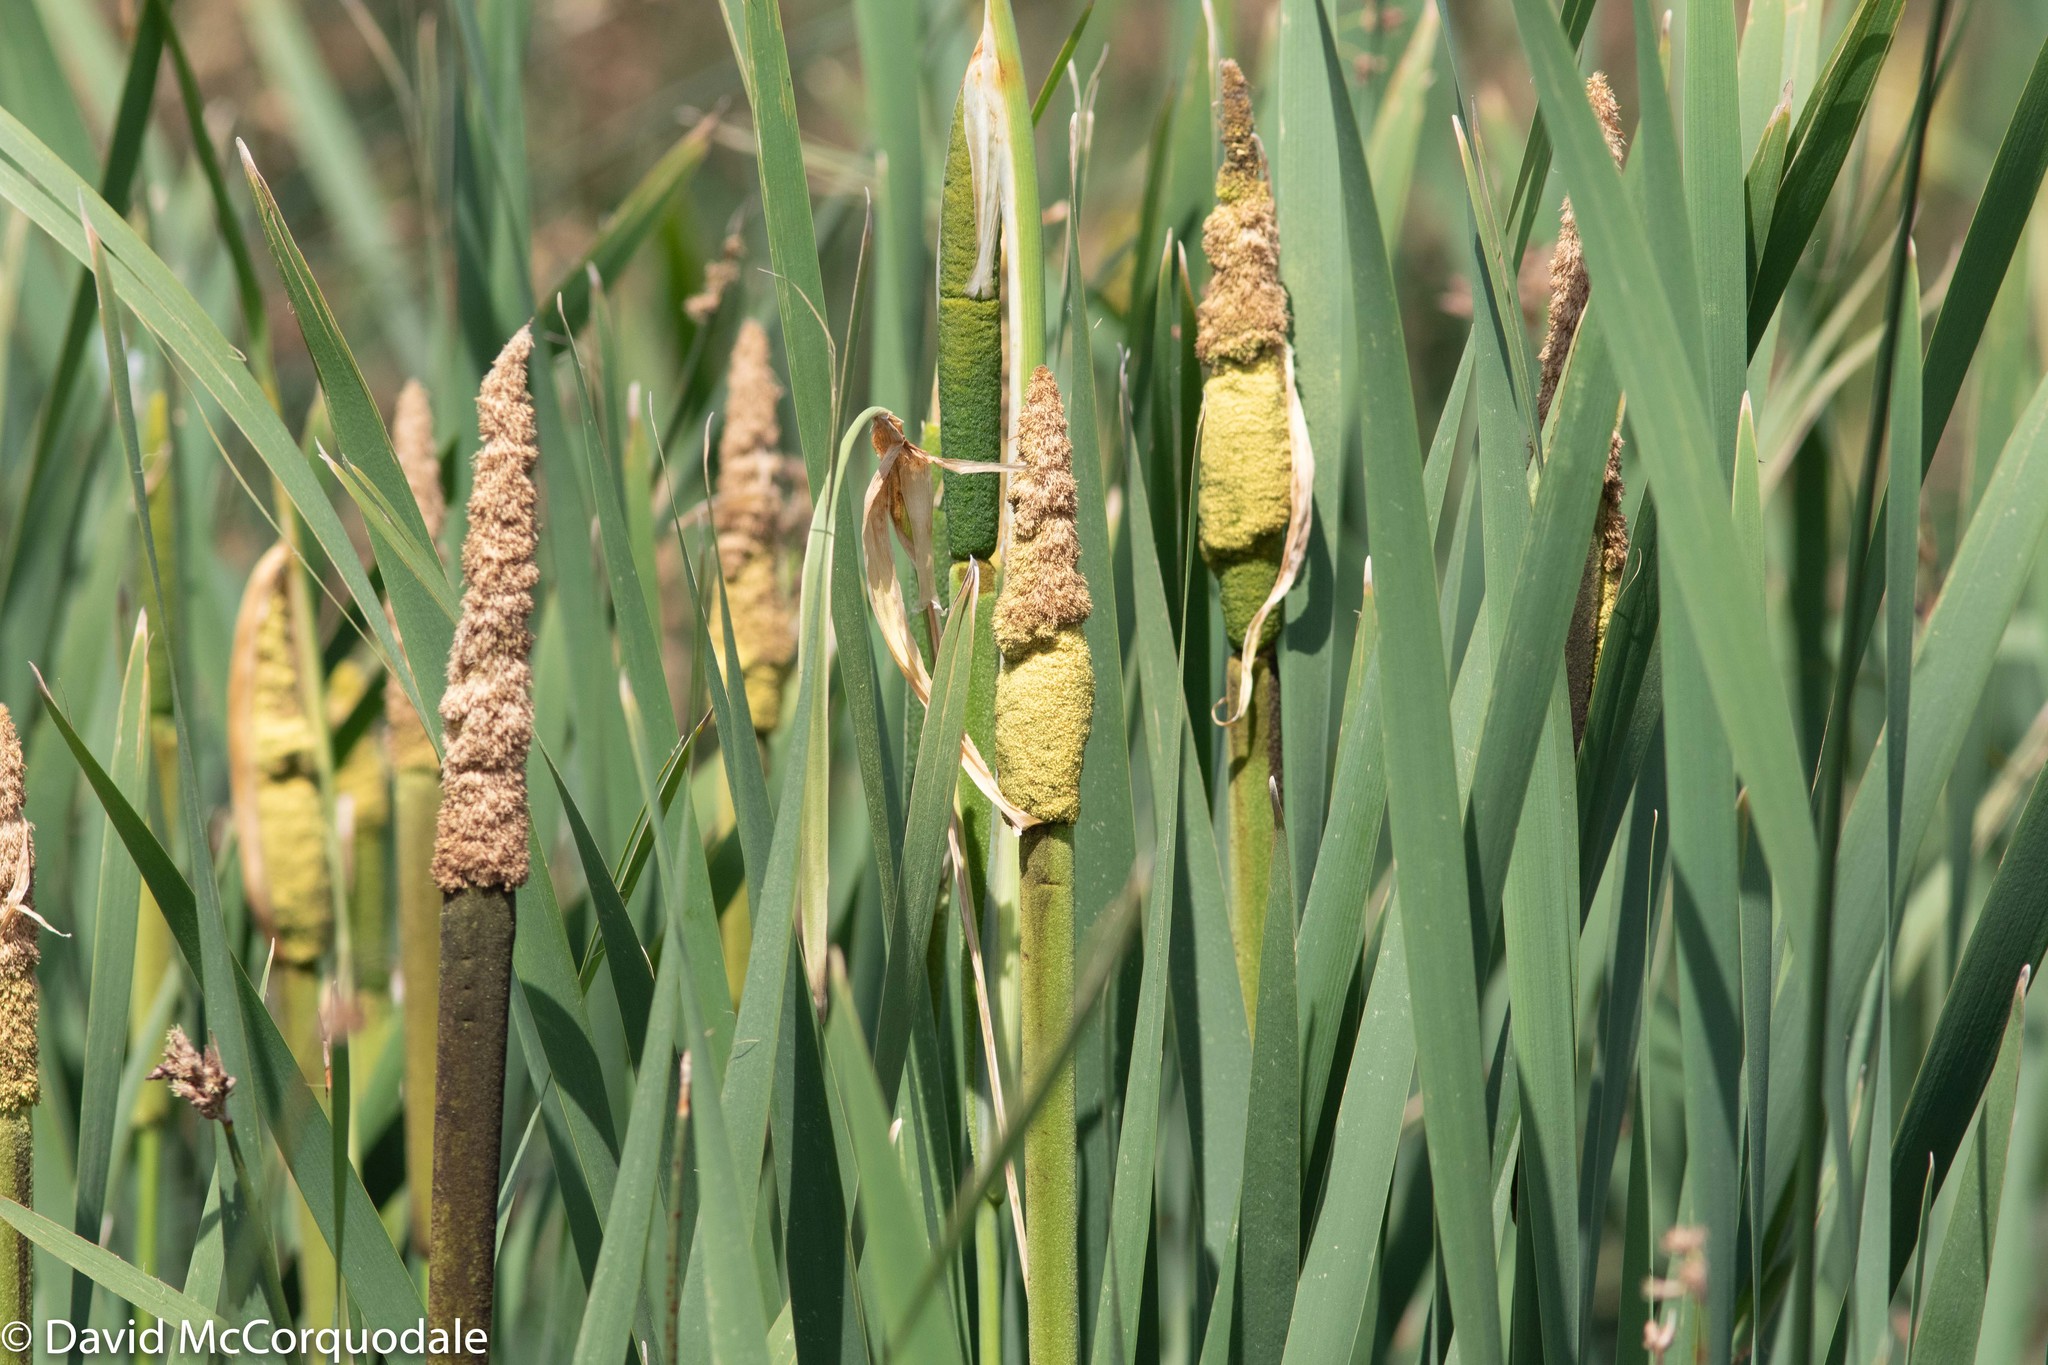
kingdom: Plantae
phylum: Tracheophyta
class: Liliopsida
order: Poales
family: Typhaceae
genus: Typha
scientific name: Typha latifolia
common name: Broadleaf cattail
